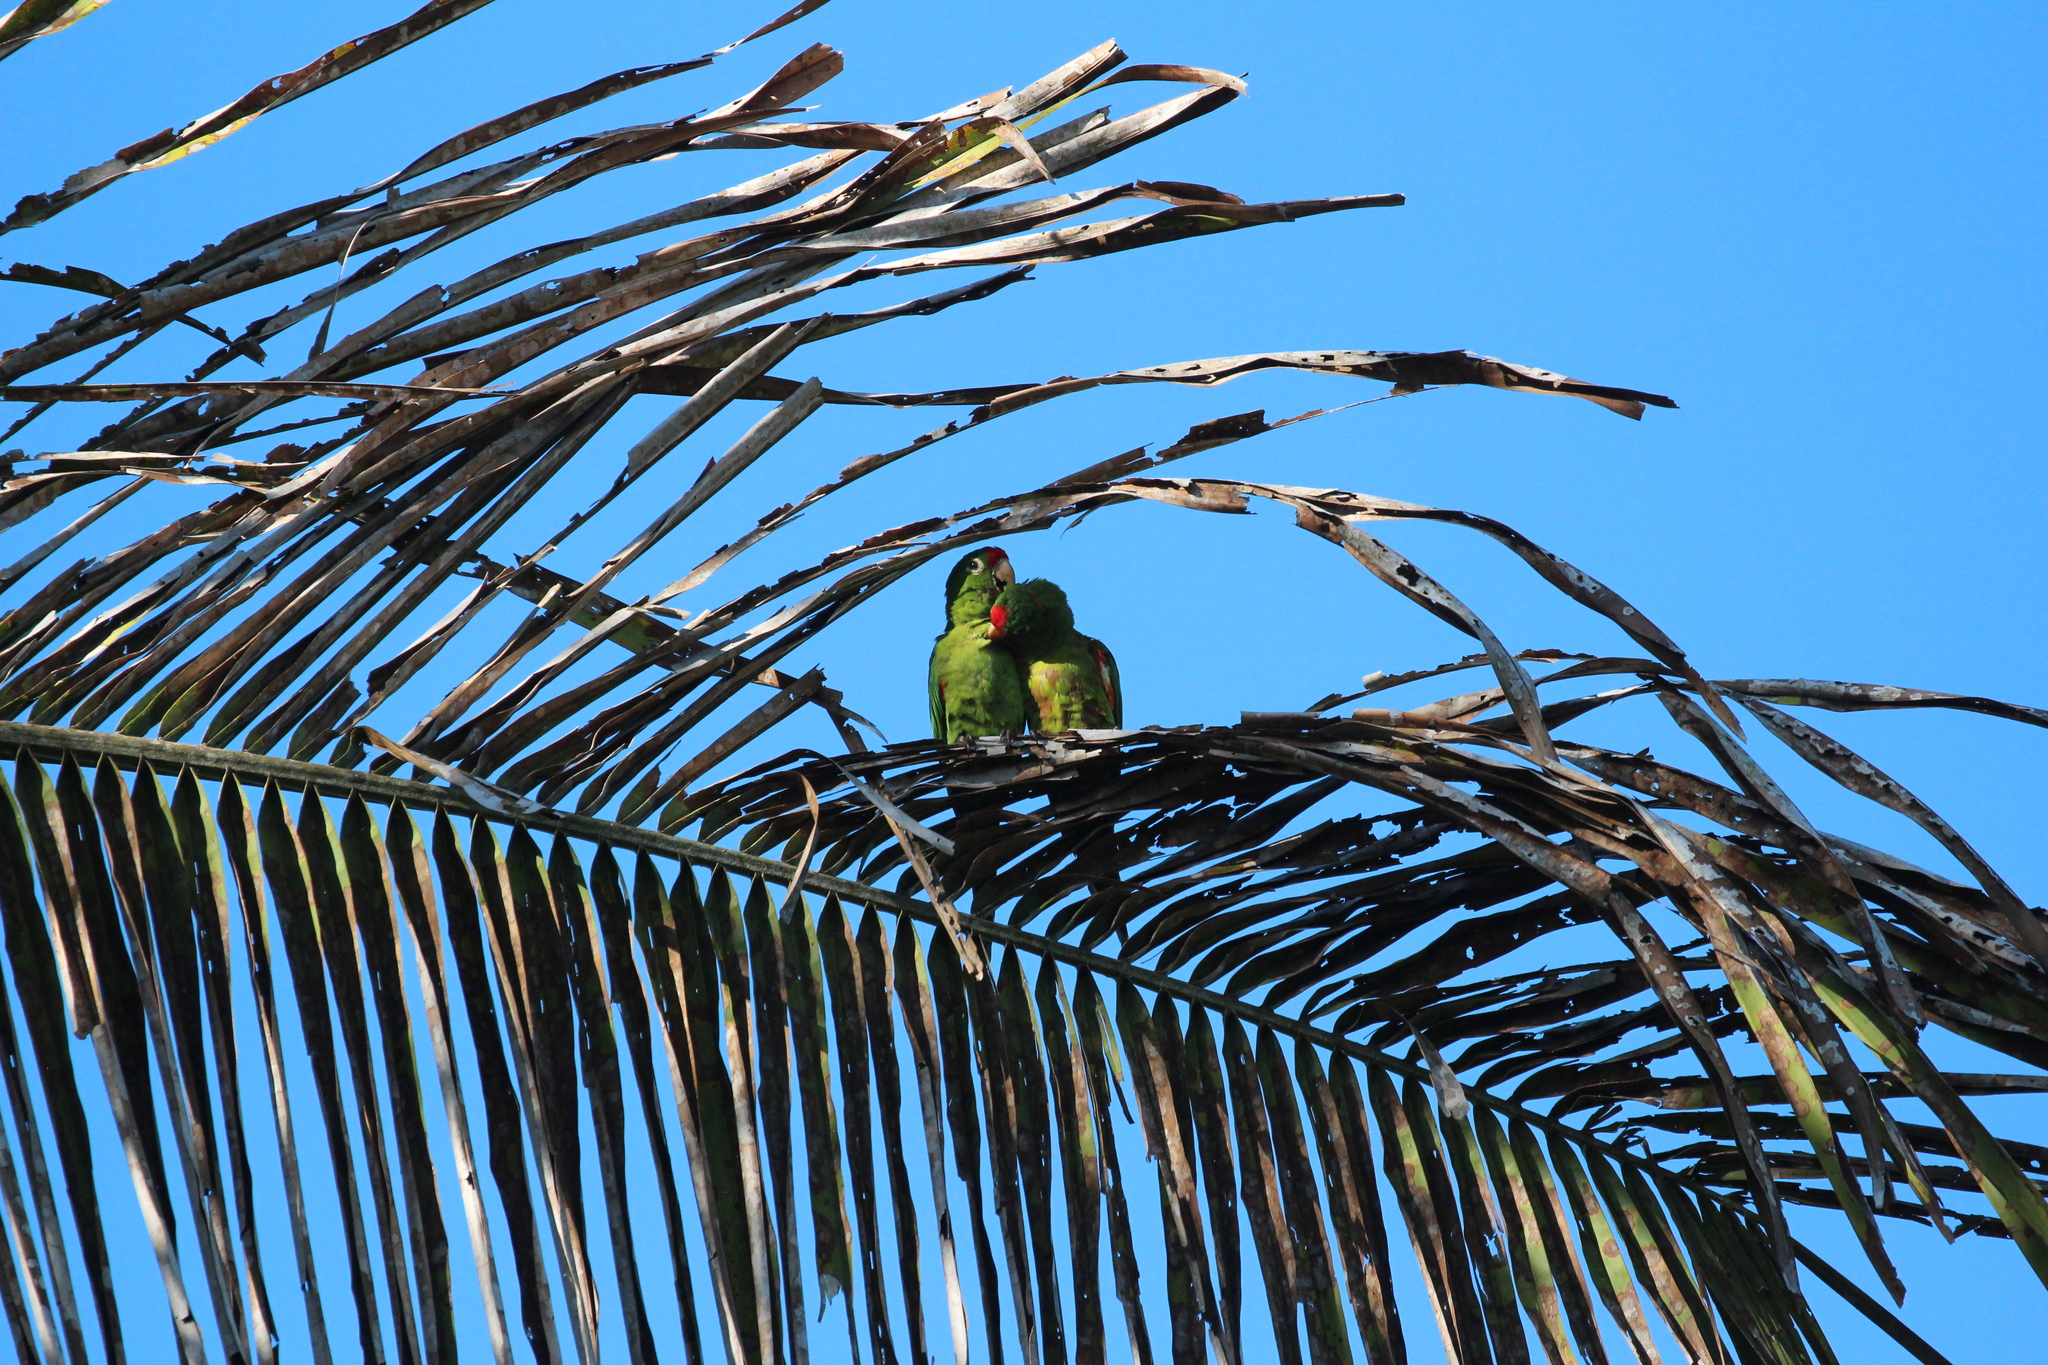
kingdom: Animalia
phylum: Chordata
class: Aves
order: Psittaciformes
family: Psittacidae
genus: Aratinga
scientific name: Aratinga finschi
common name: Crimson-fronted parakeet
